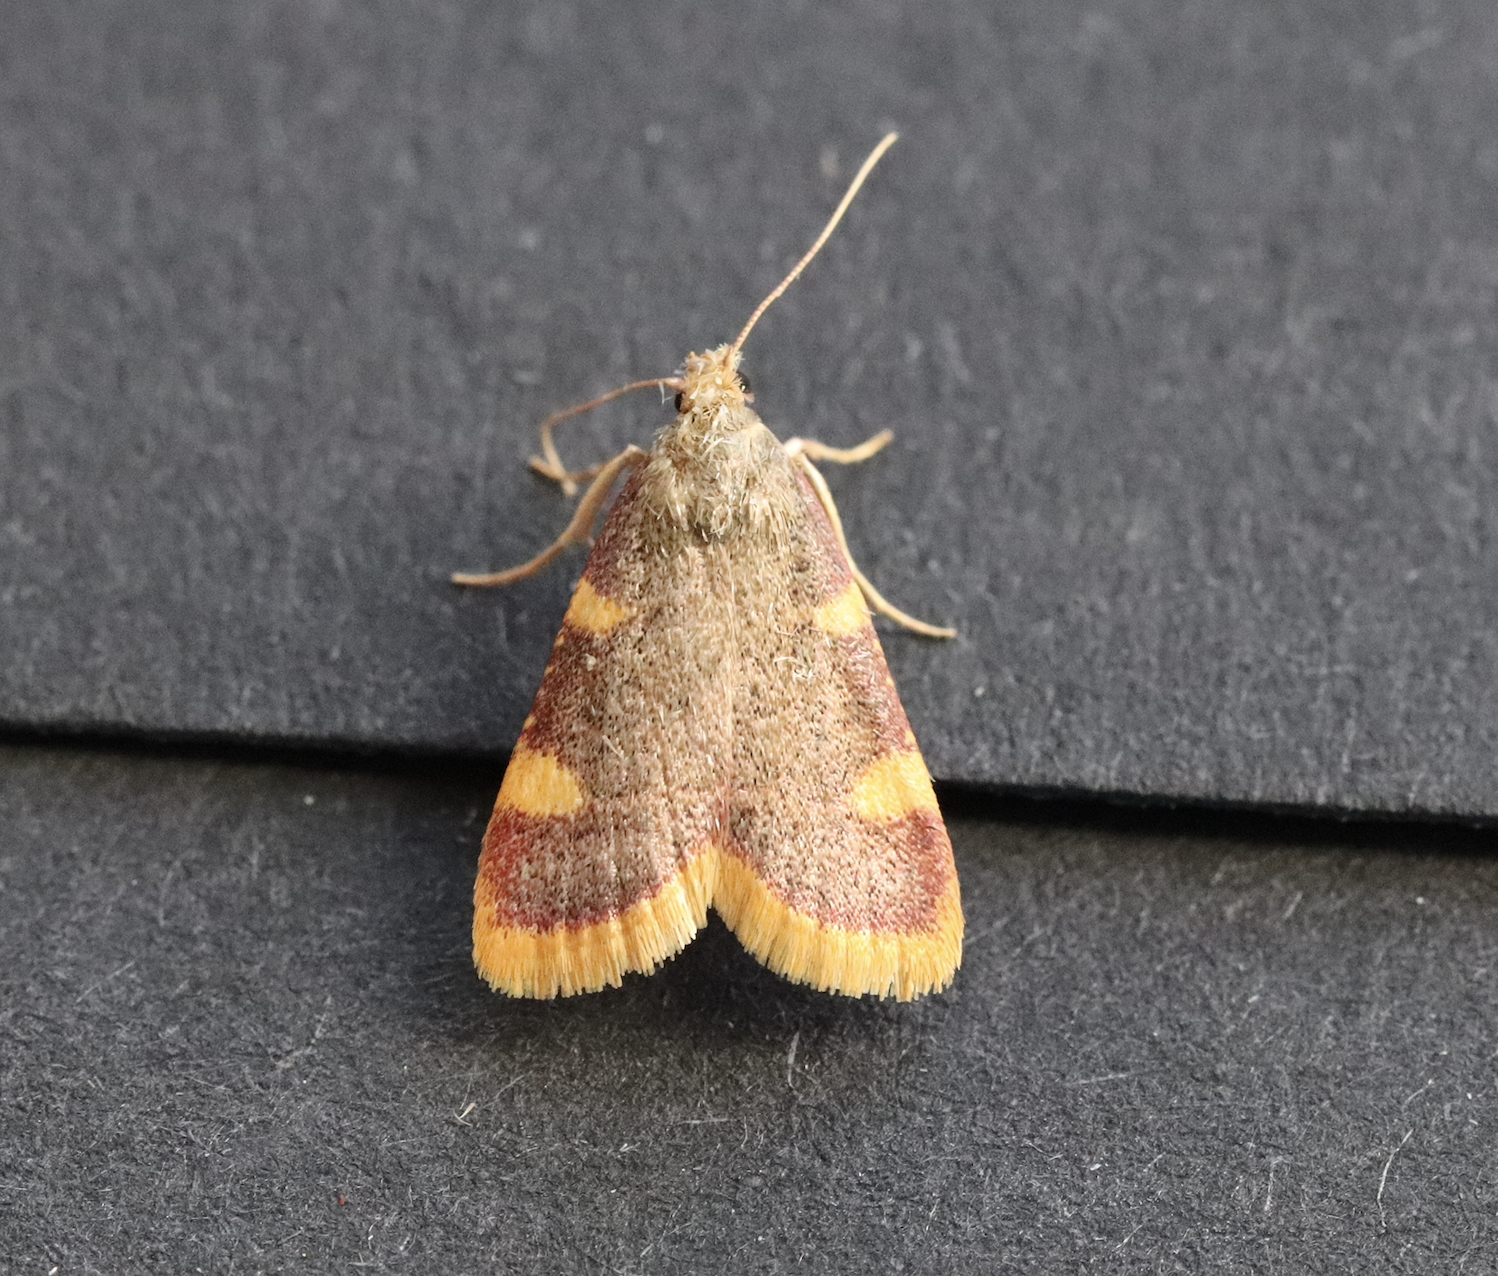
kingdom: Animalia
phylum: Arthropoda
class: Insecta
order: Lepidoptera
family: Pyralidae
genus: Hypsopygia
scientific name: Hypsopygia costalis
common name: Gold triangle
